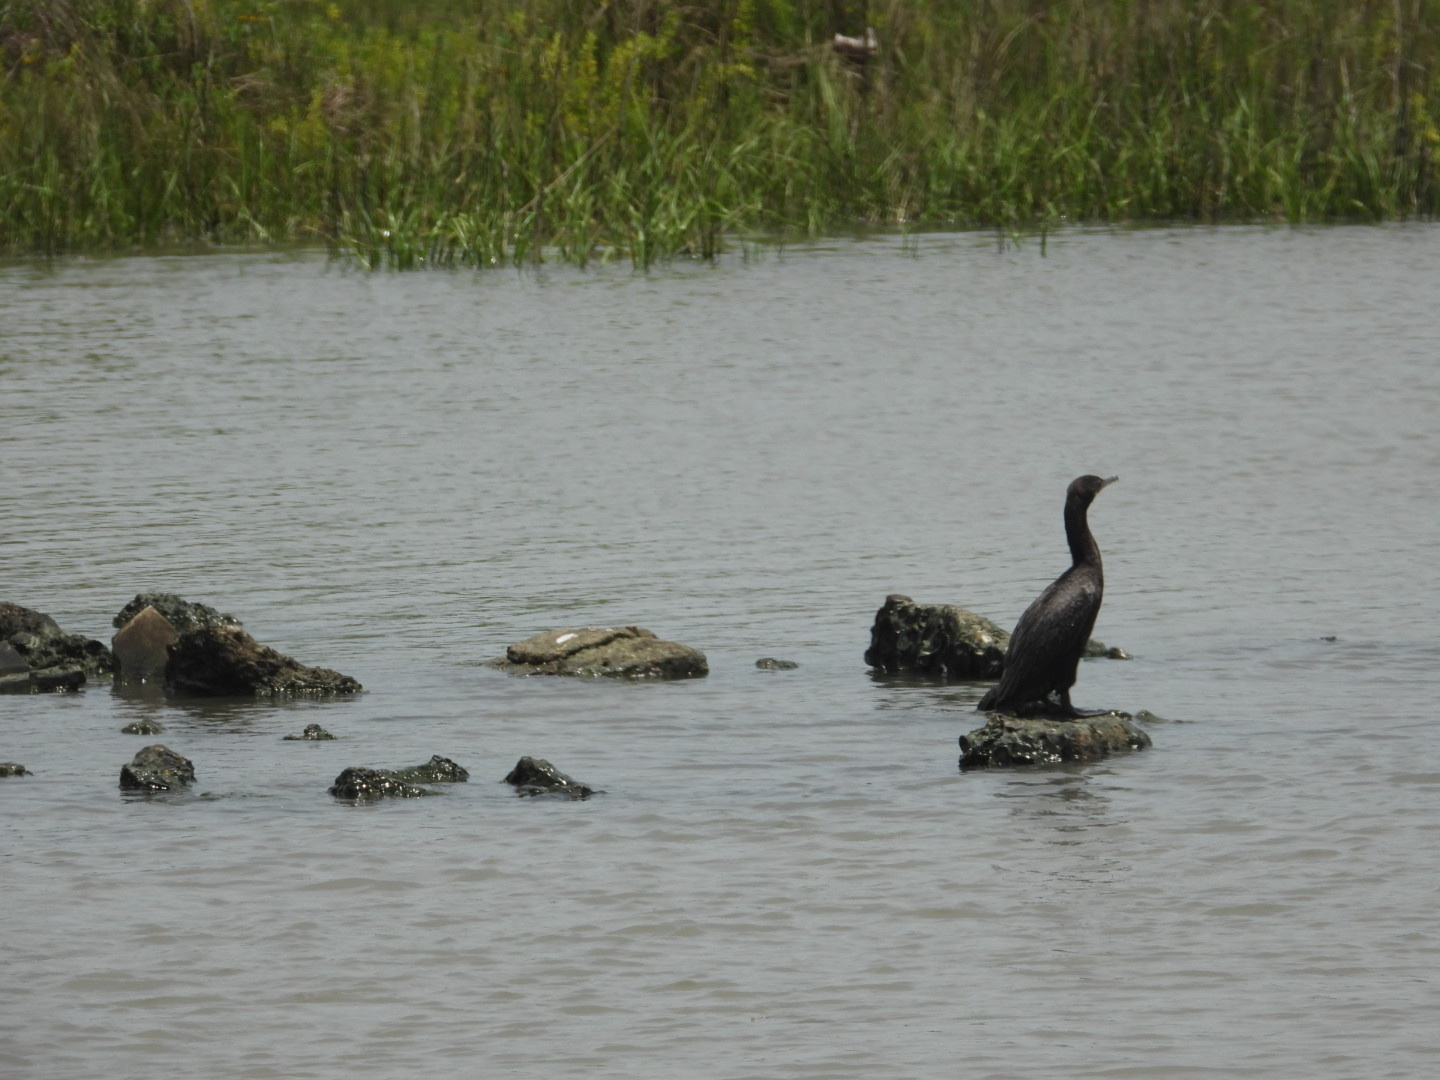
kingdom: Animalia
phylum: Chordata
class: Aves
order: Suliformes
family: Phalacrocoracidae
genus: Phalacrocorax
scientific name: Phalacrocorax brasilianus
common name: Neotropic cormorant
